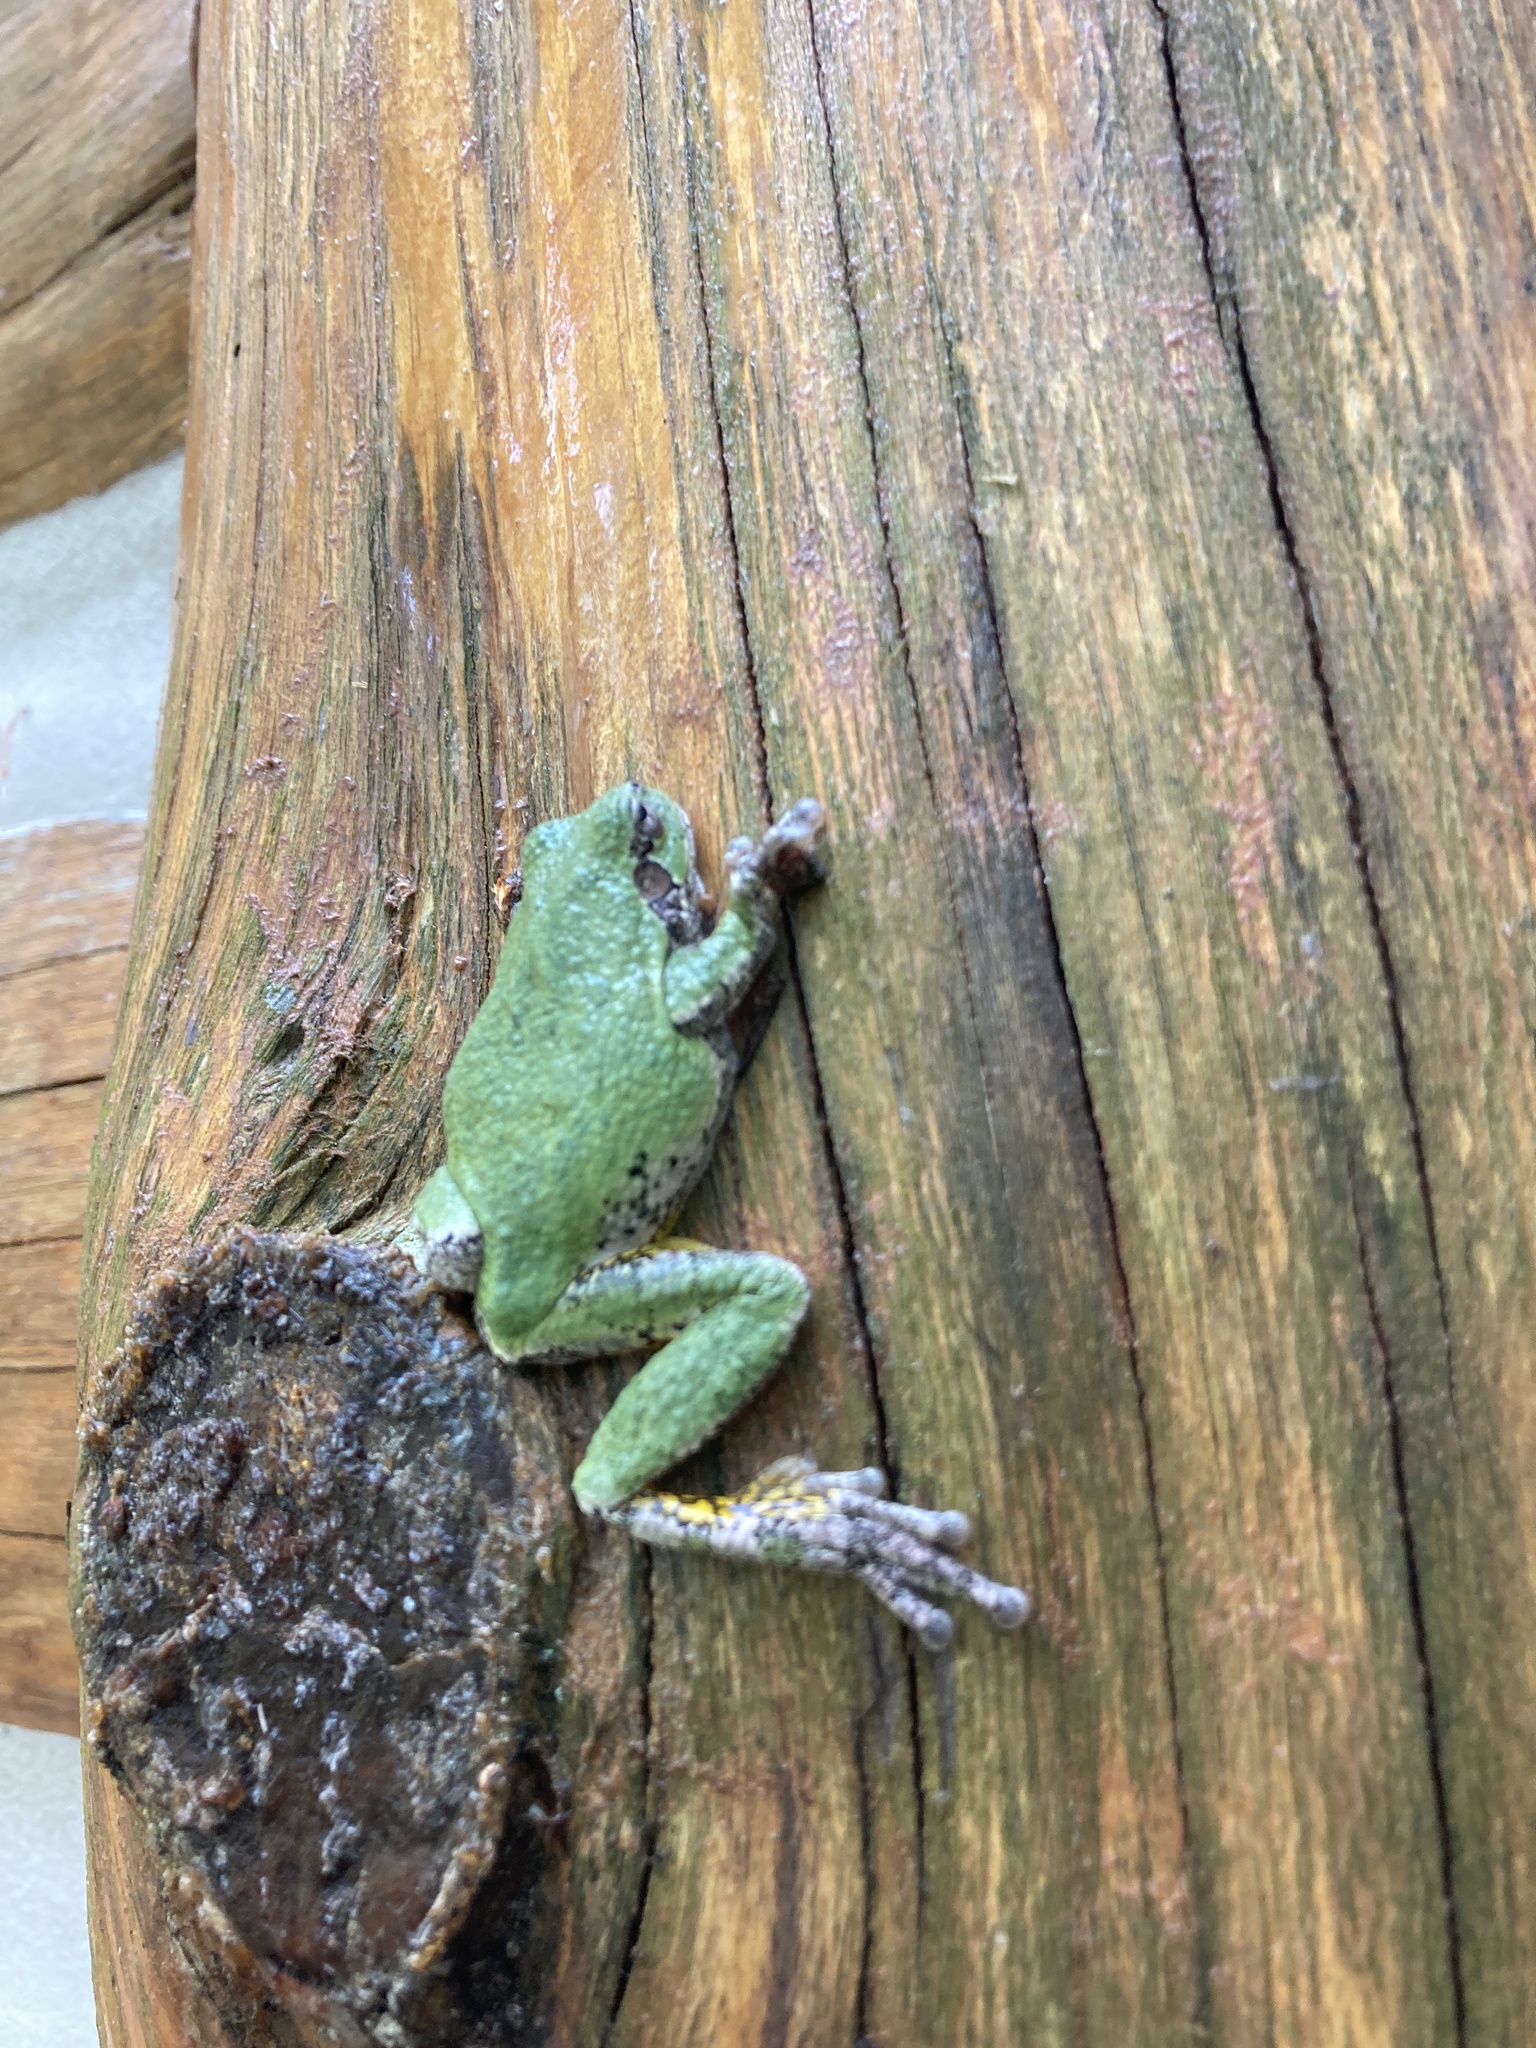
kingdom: Animalia
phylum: Chordata
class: Amphibia
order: Anura
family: Hylidae
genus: Hyla
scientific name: Hyla
